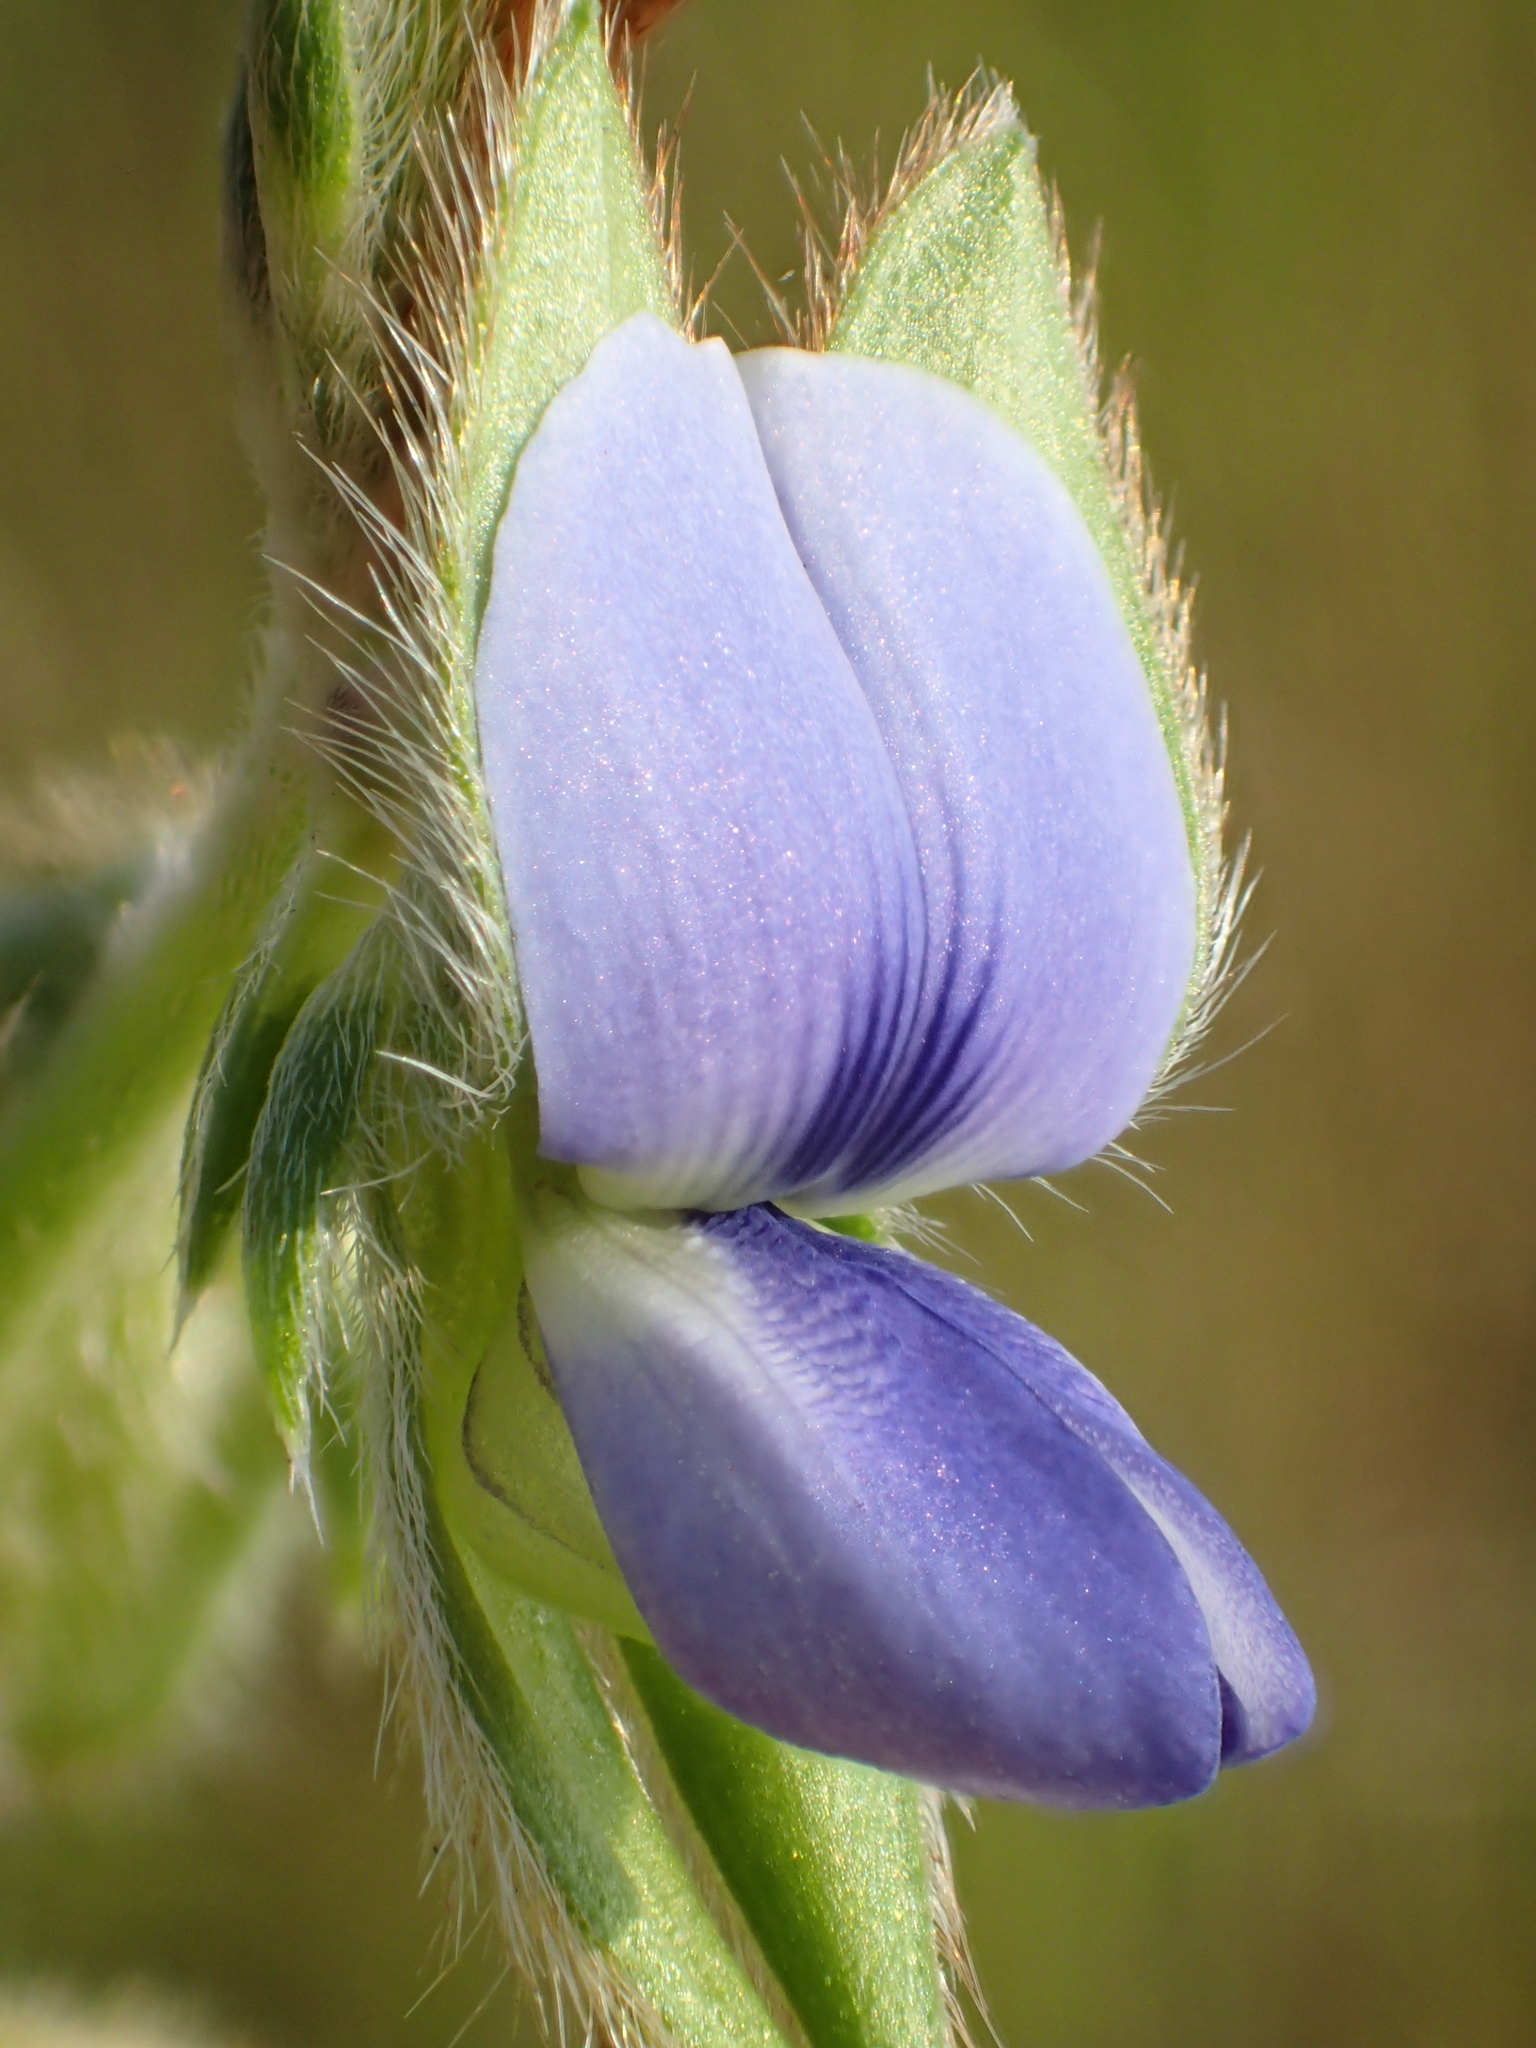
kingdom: Plantae
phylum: Tracheophyta
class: Magnoliopsida
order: Fabales
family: Fabaceae
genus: Crotalaria
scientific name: Crotalaria sessiliflora
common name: Rattlebox
